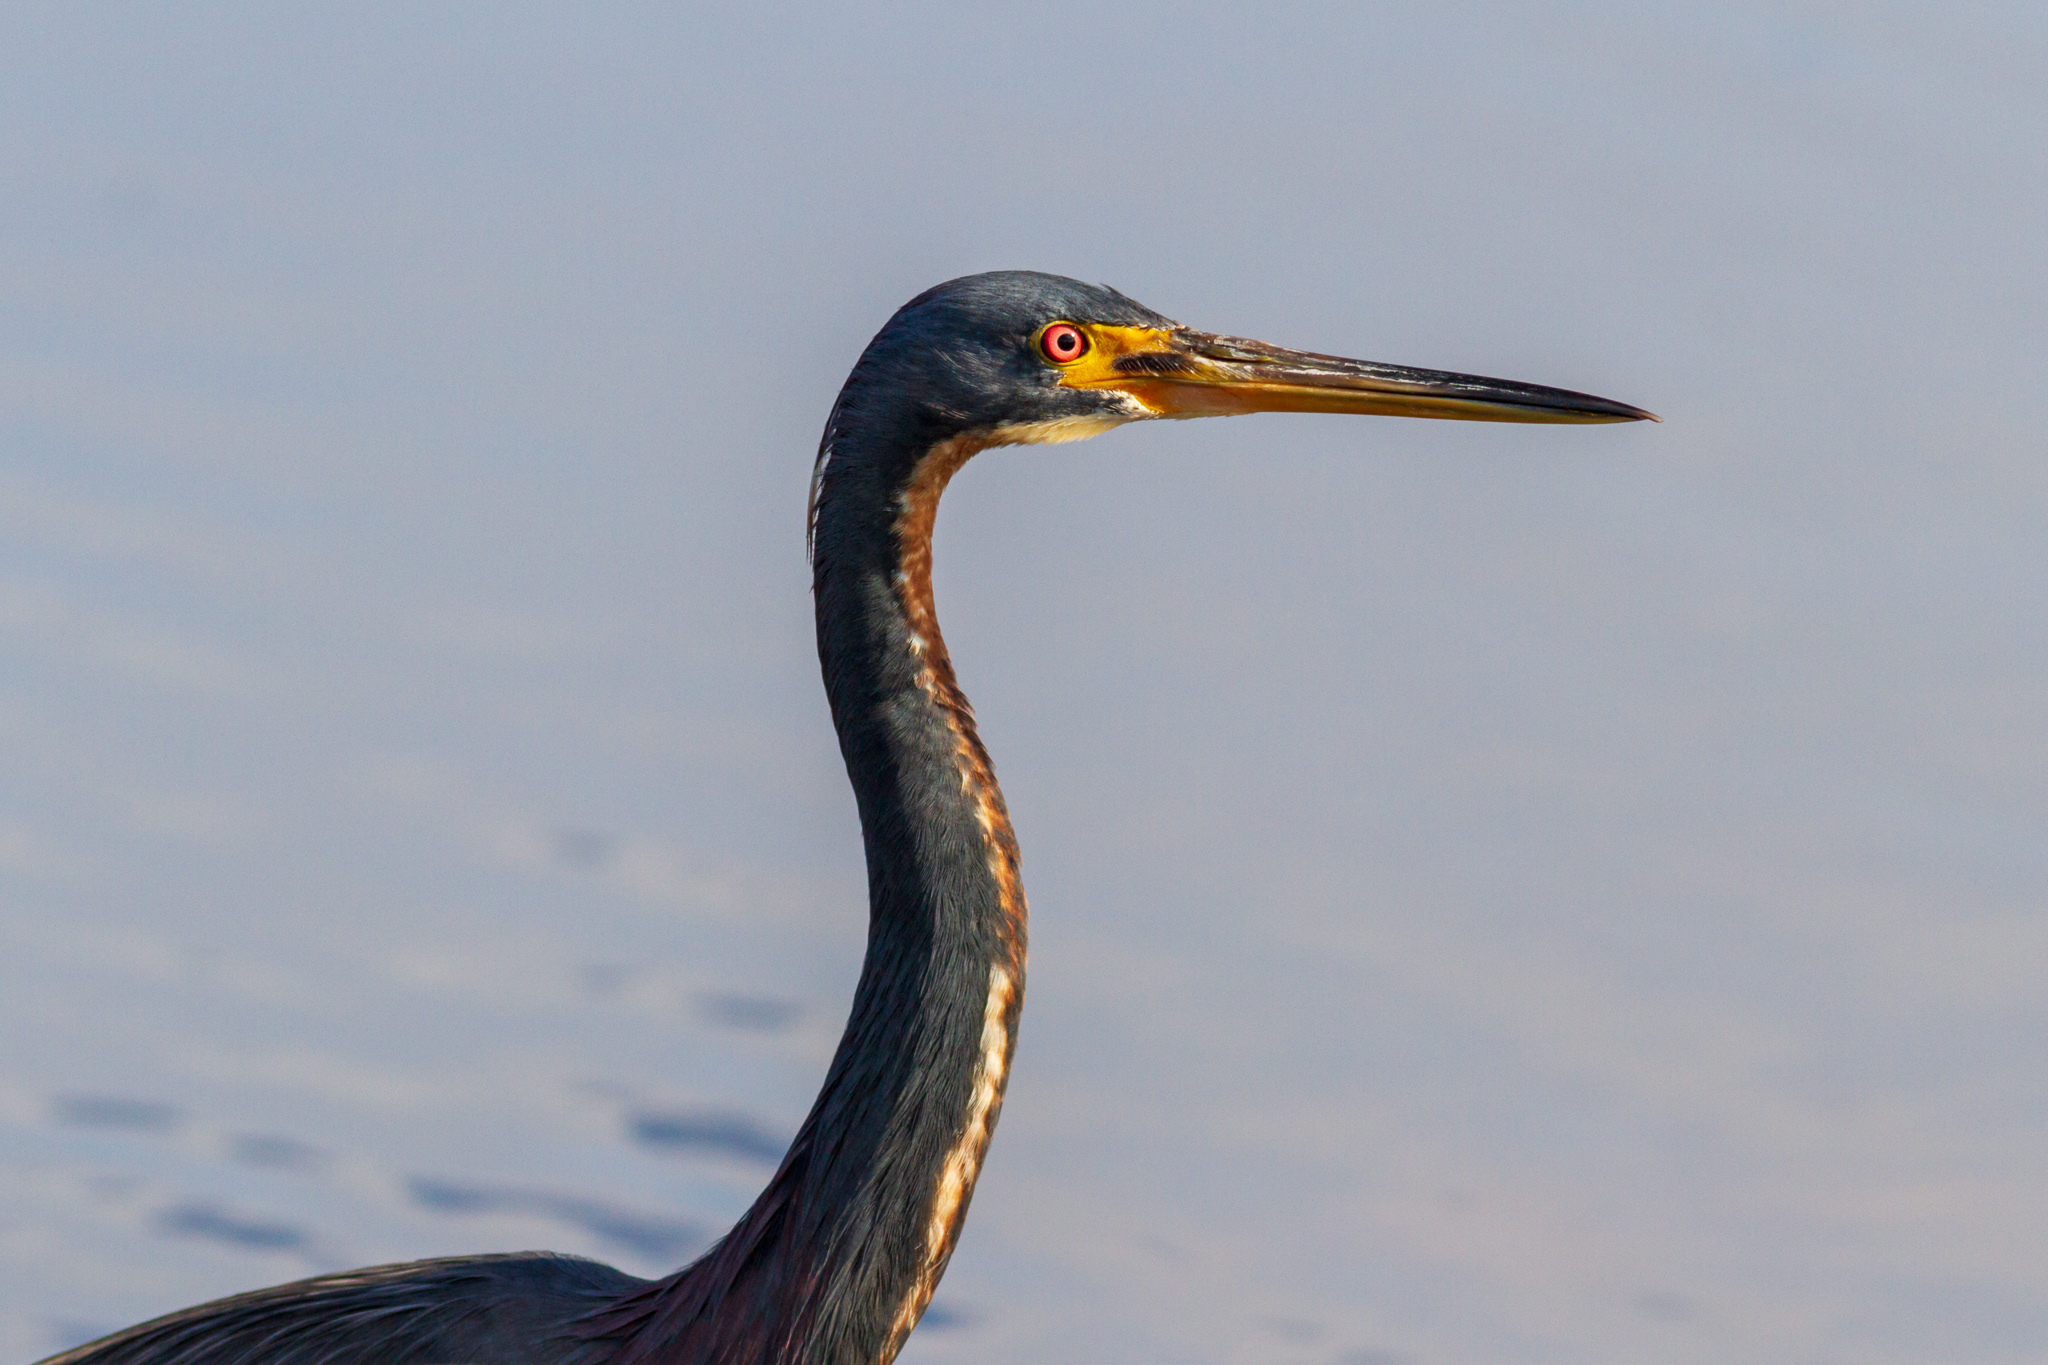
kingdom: Animalia
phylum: Chordata
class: Aves
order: Pelecaniformes
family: Ardeidae
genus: Egretta
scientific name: Egretta tricolor
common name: Tricolored heron
